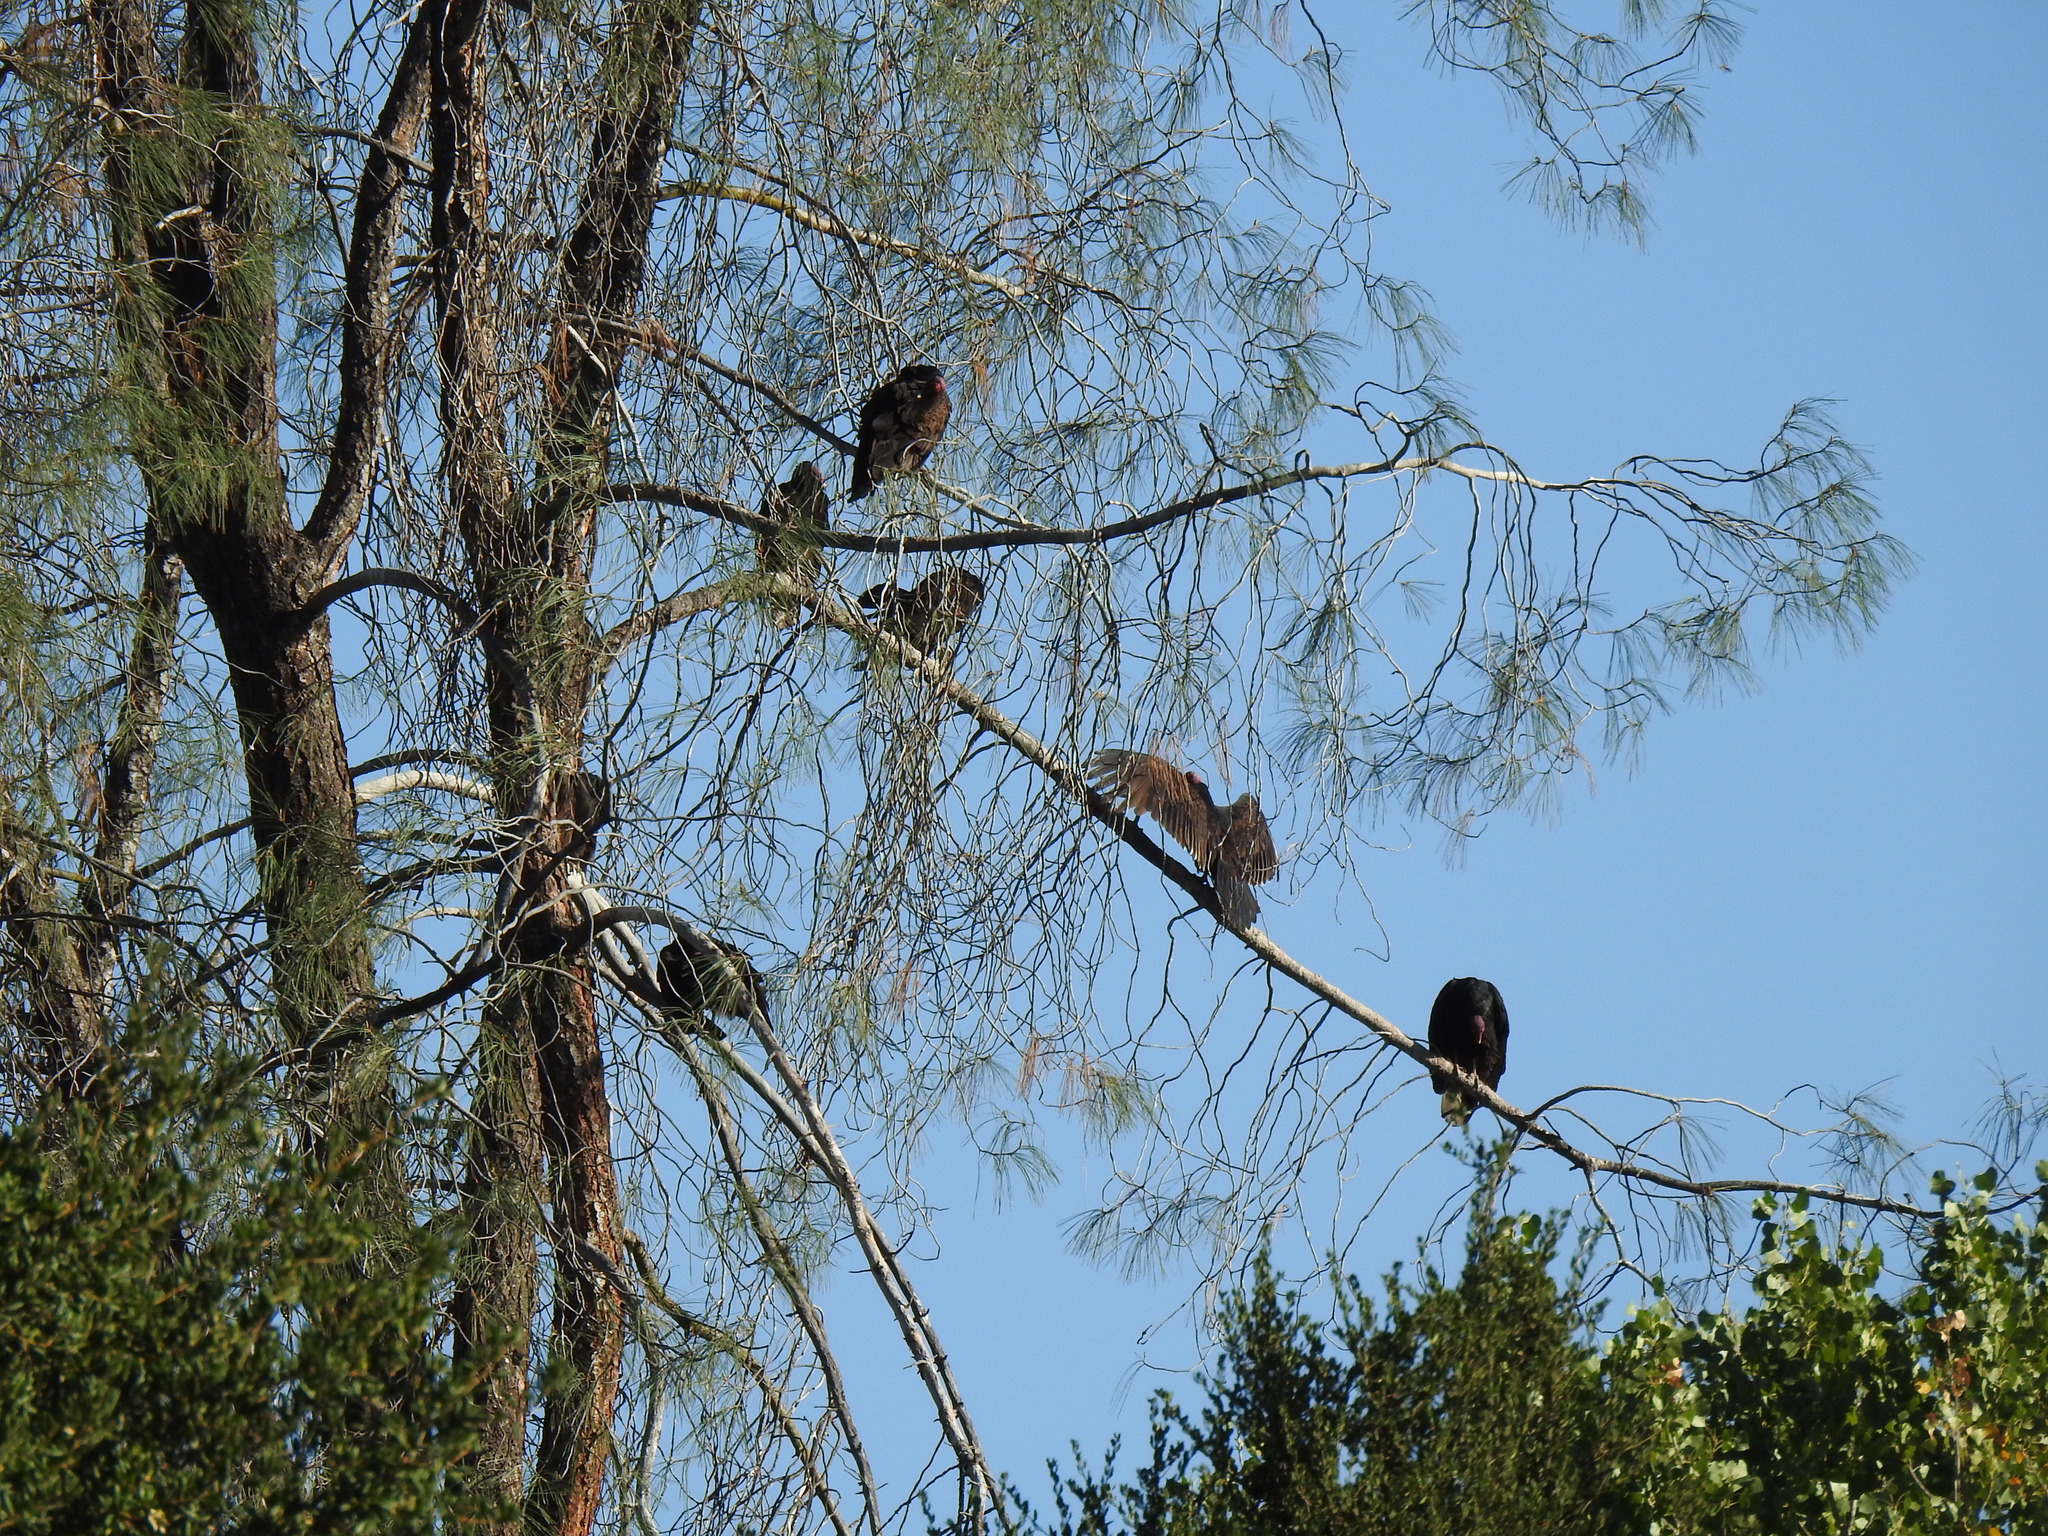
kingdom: Animalia
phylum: Chordata
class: Aves
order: Accipitriformes
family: Cathartidae
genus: Cathartes
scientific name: Cathartes aura
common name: Turkey vulture
